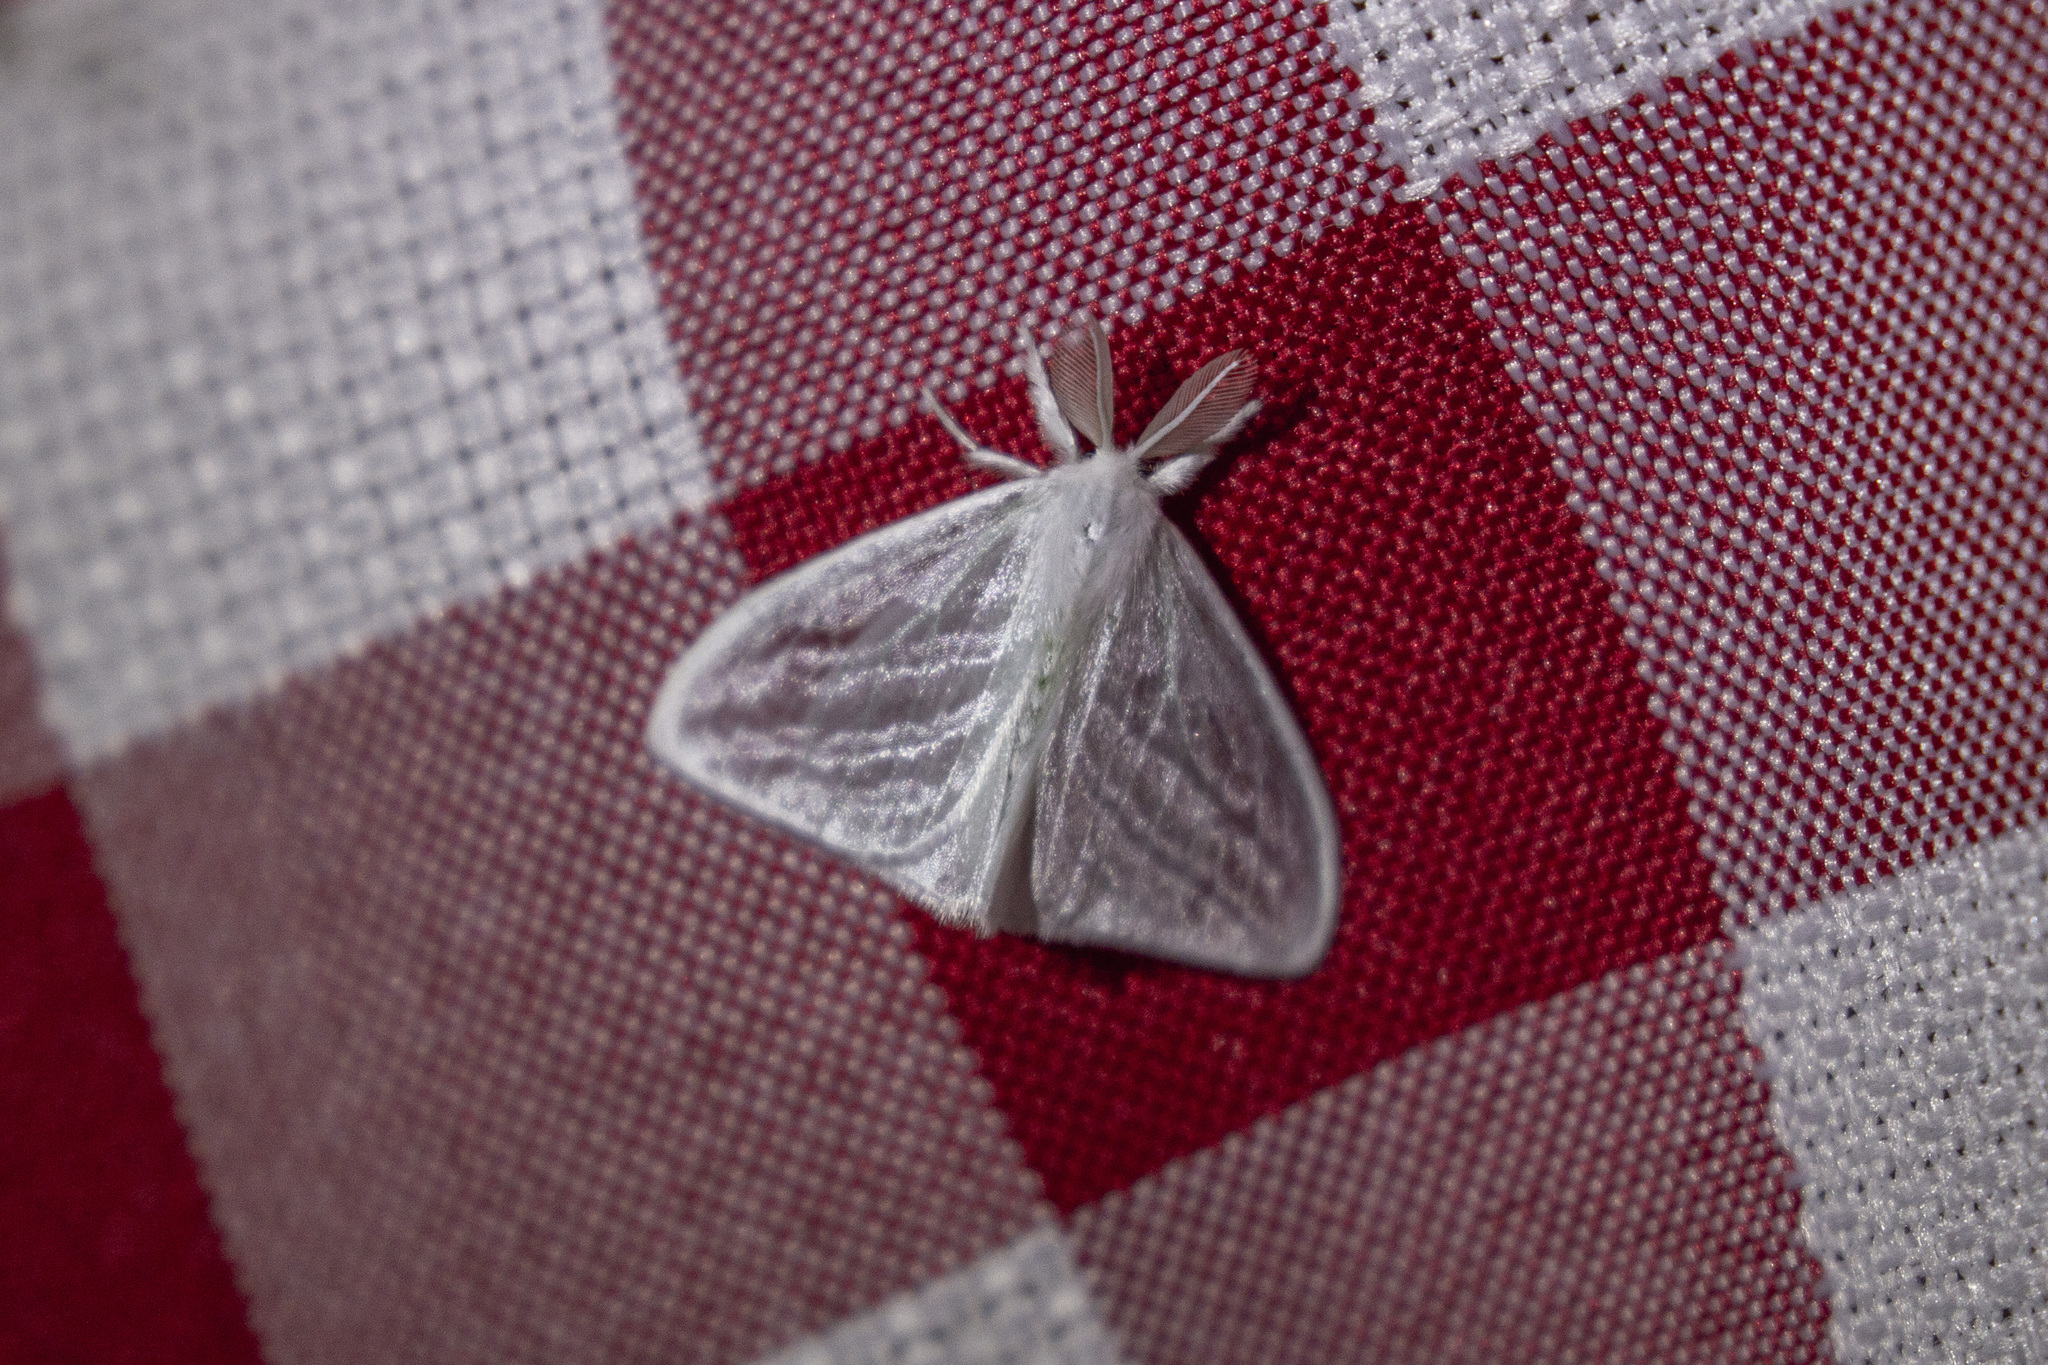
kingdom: Animalia
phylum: Arthropoda
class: Insecta
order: Lepidoptera
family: Erebidae
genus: Caviria
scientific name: Caviria regina
